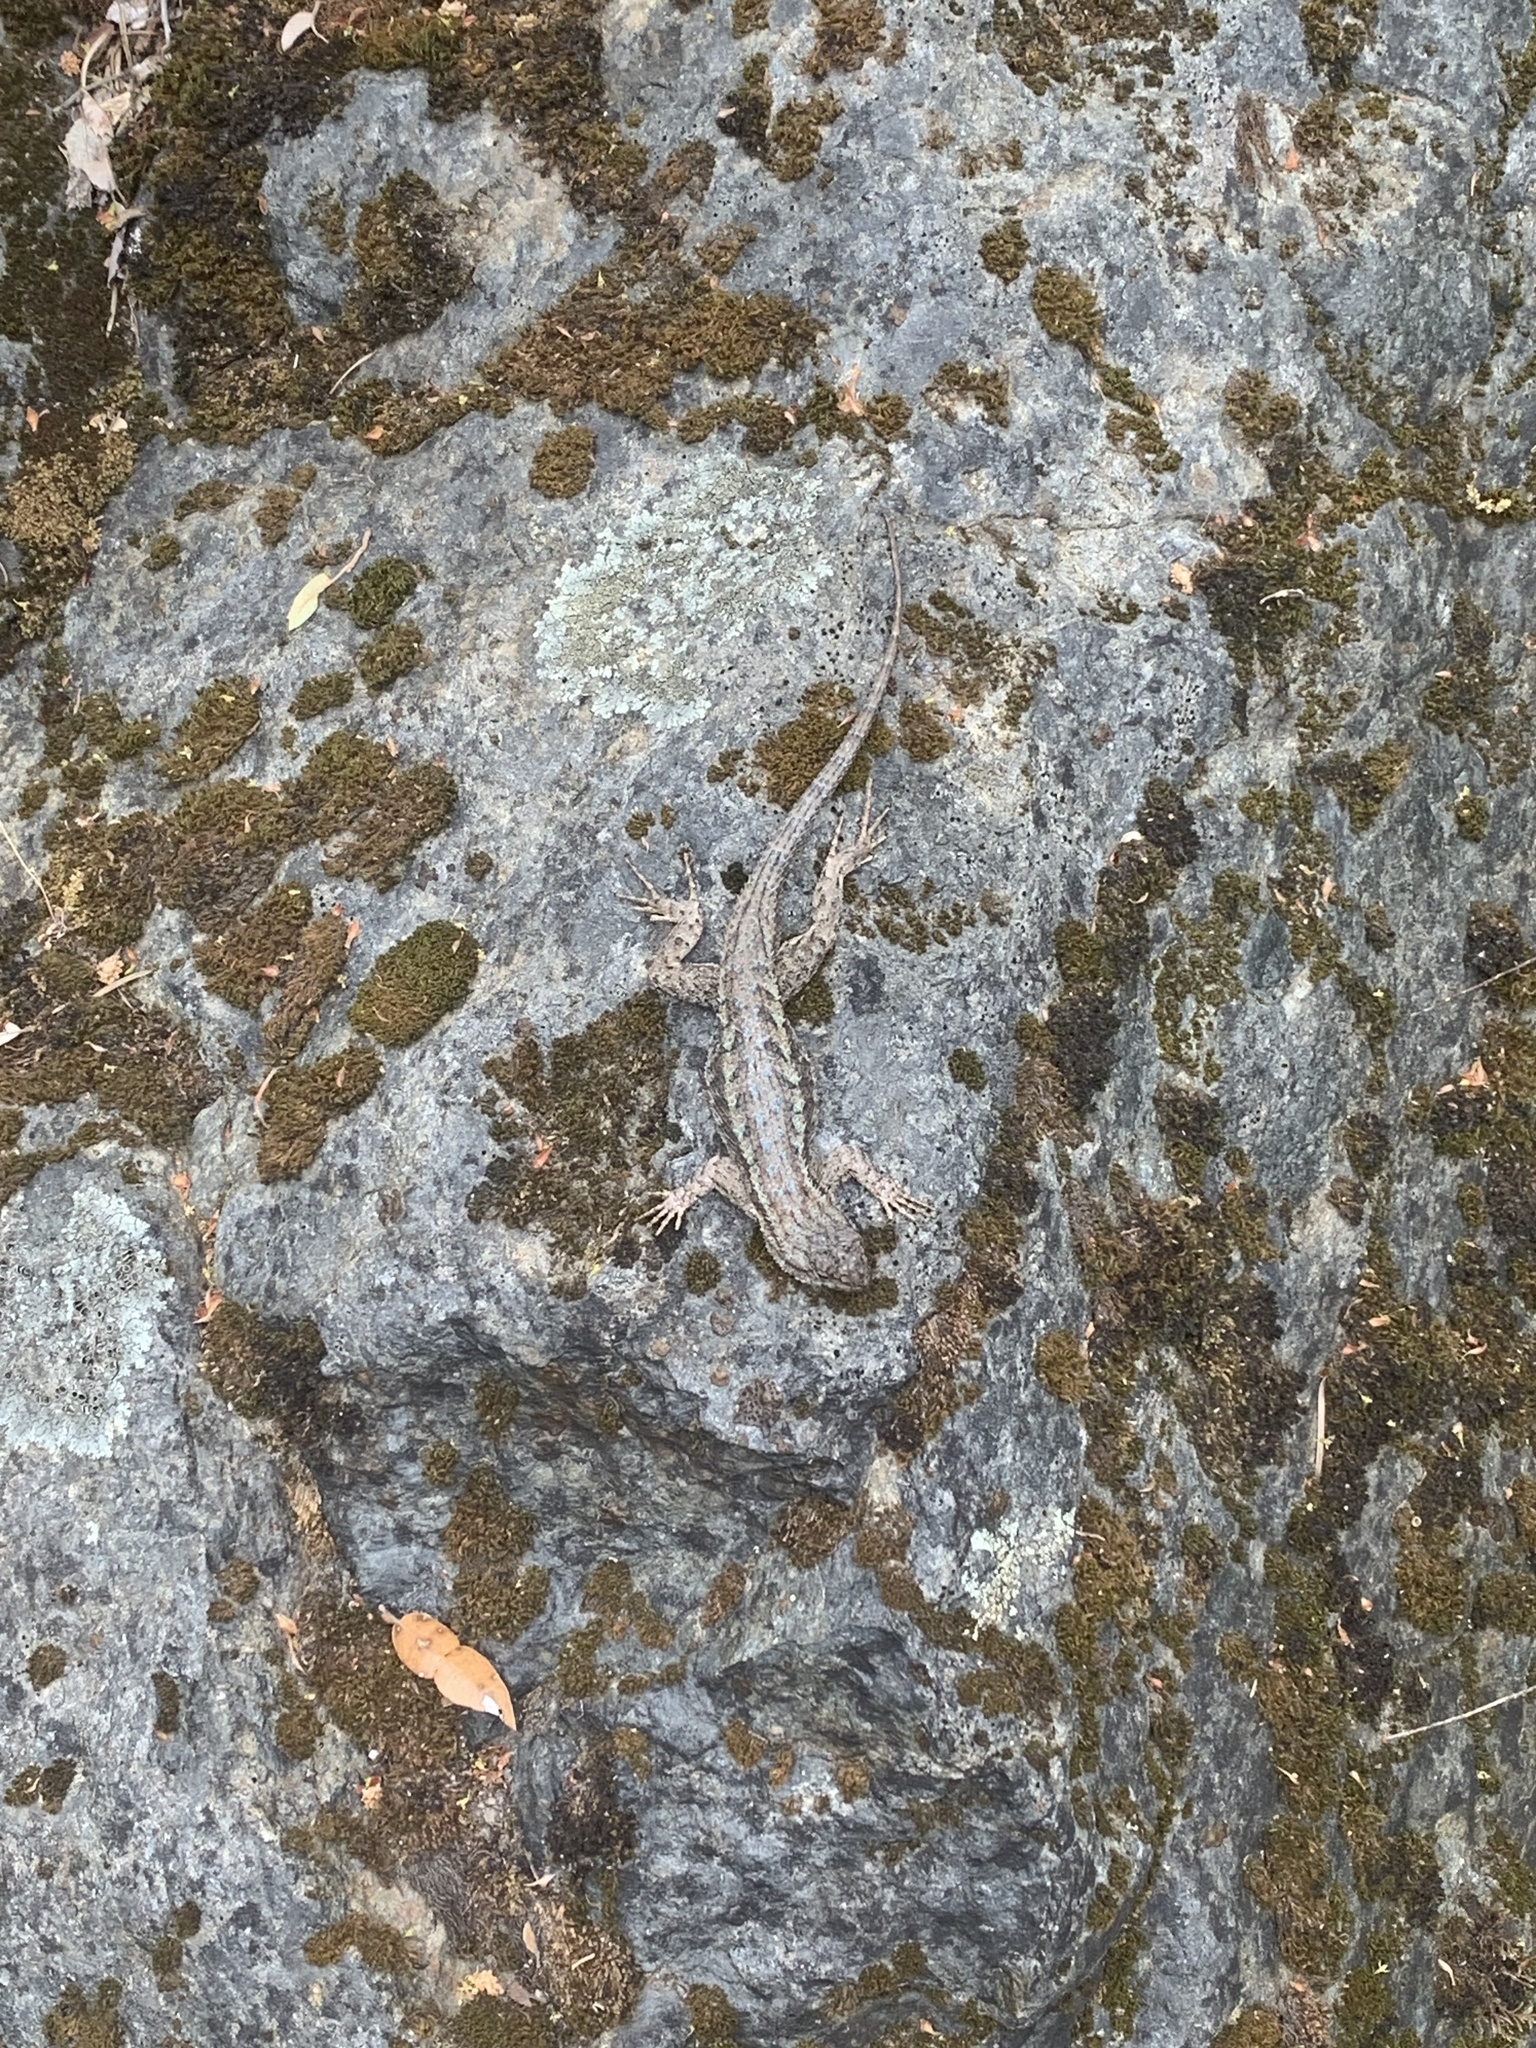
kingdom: Animalia
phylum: Chordata
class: Squamata
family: Phrynosomatidae
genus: Sceloporus
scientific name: Sceloporus occidentalis
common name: Western fence lizard
